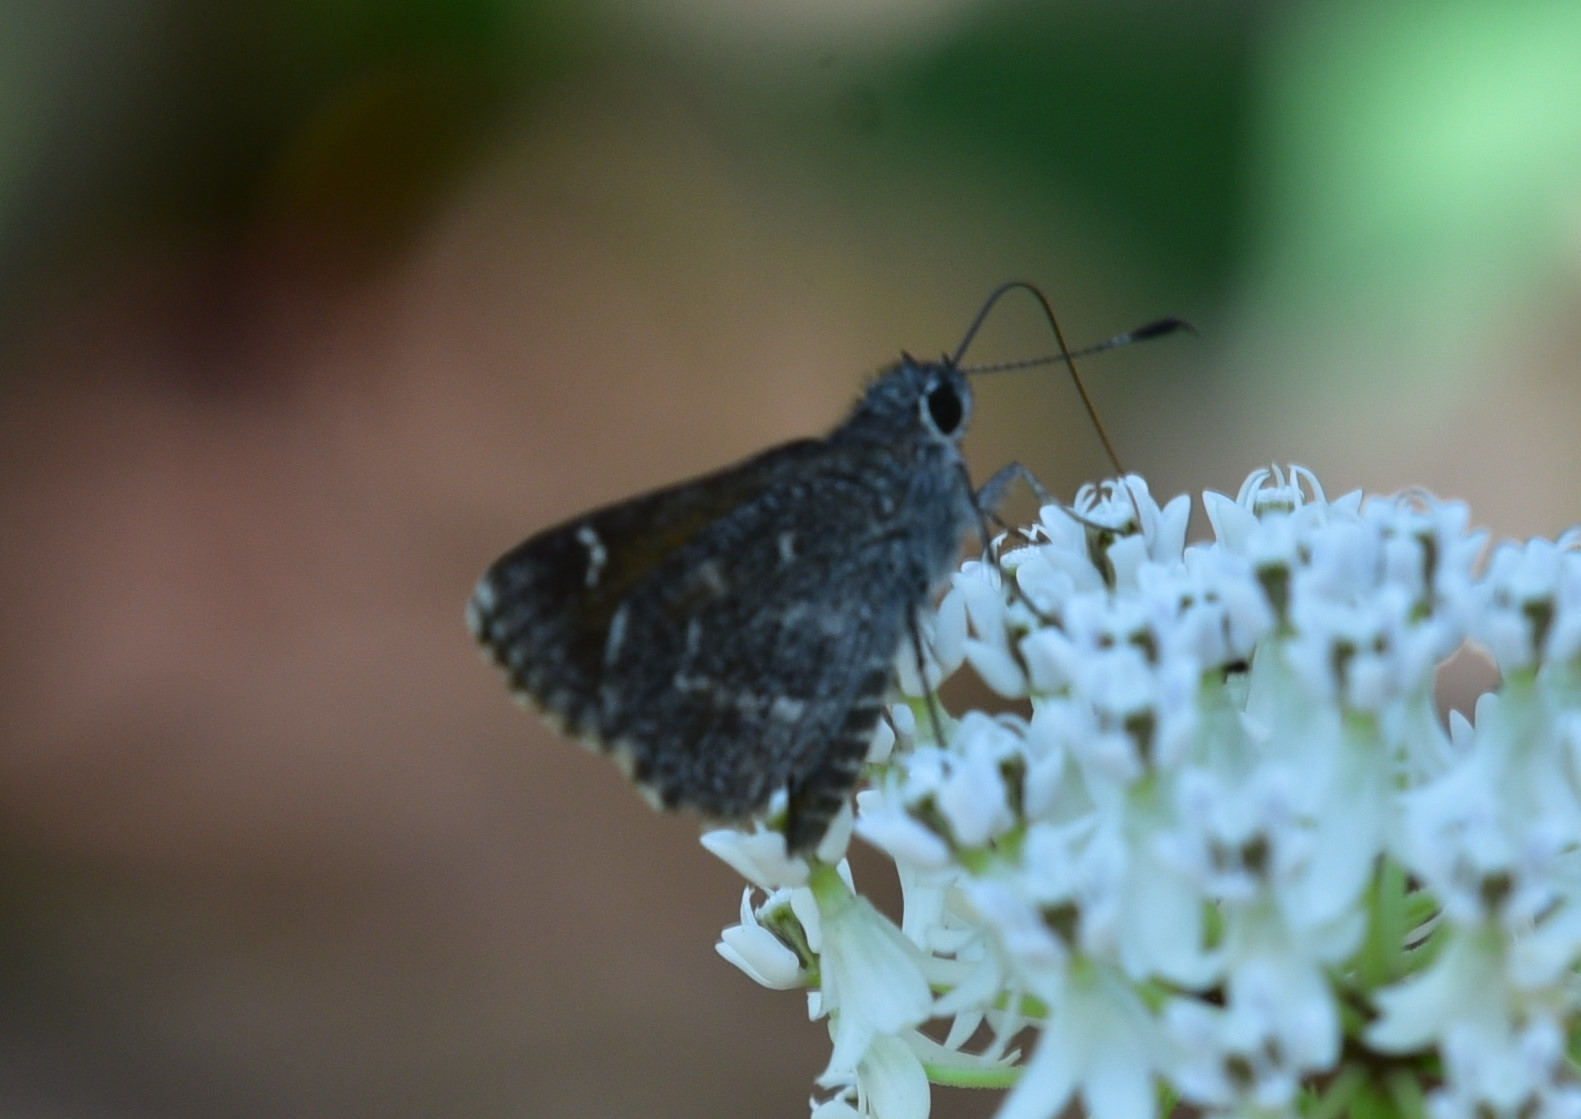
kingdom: Animalia
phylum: Arthropoda
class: Insecta
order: Lepidoptera
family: Hesperiidae
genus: Mastor
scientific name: Mastor celia
